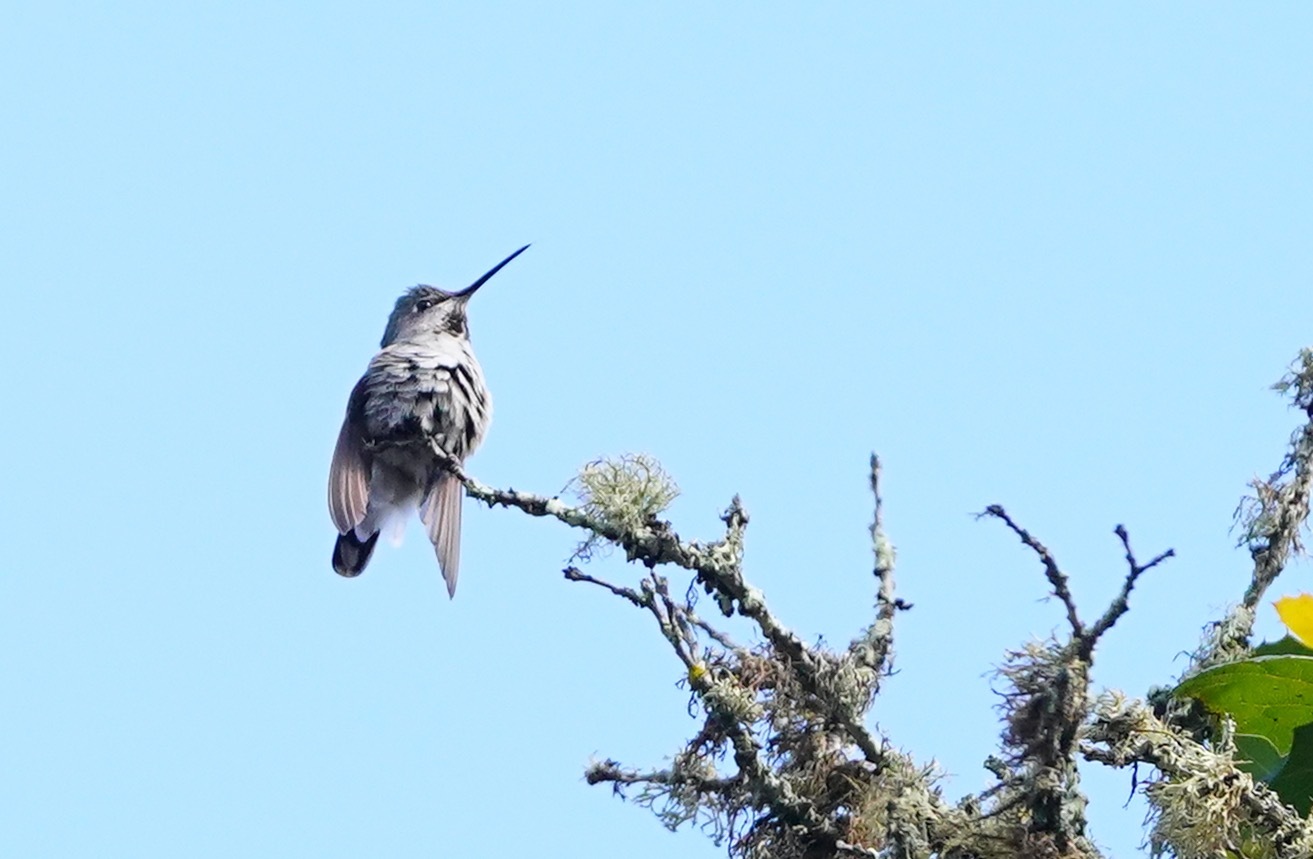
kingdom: Animalia
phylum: Chordata
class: Aves
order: Apodiformes
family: Trochilidae
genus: Calypte
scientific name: Calypte anna
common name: Anna's hummingbird
